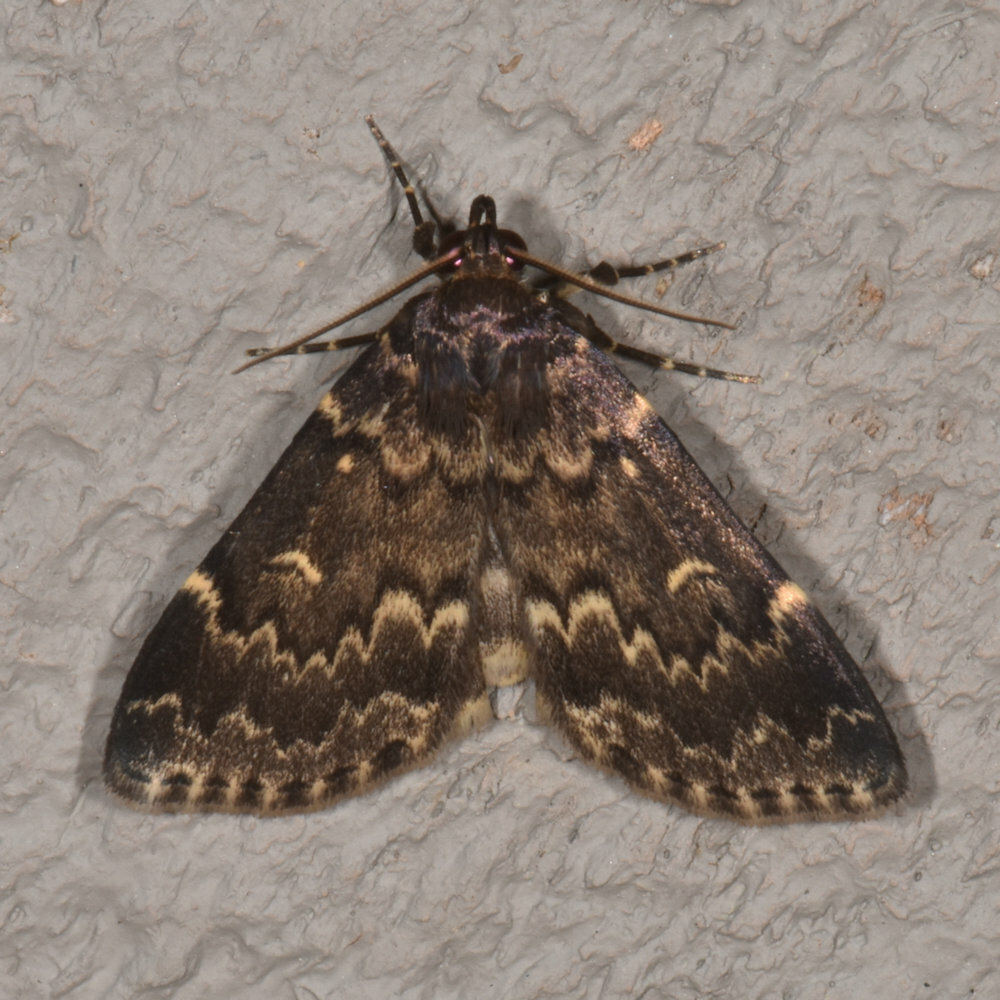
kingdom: Animalia
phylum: Arthropoda
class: Insecta
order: Lepidoptera
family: Erebidae
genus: Idia
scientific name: Idia lubricalis
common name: Twin-striped tabby
